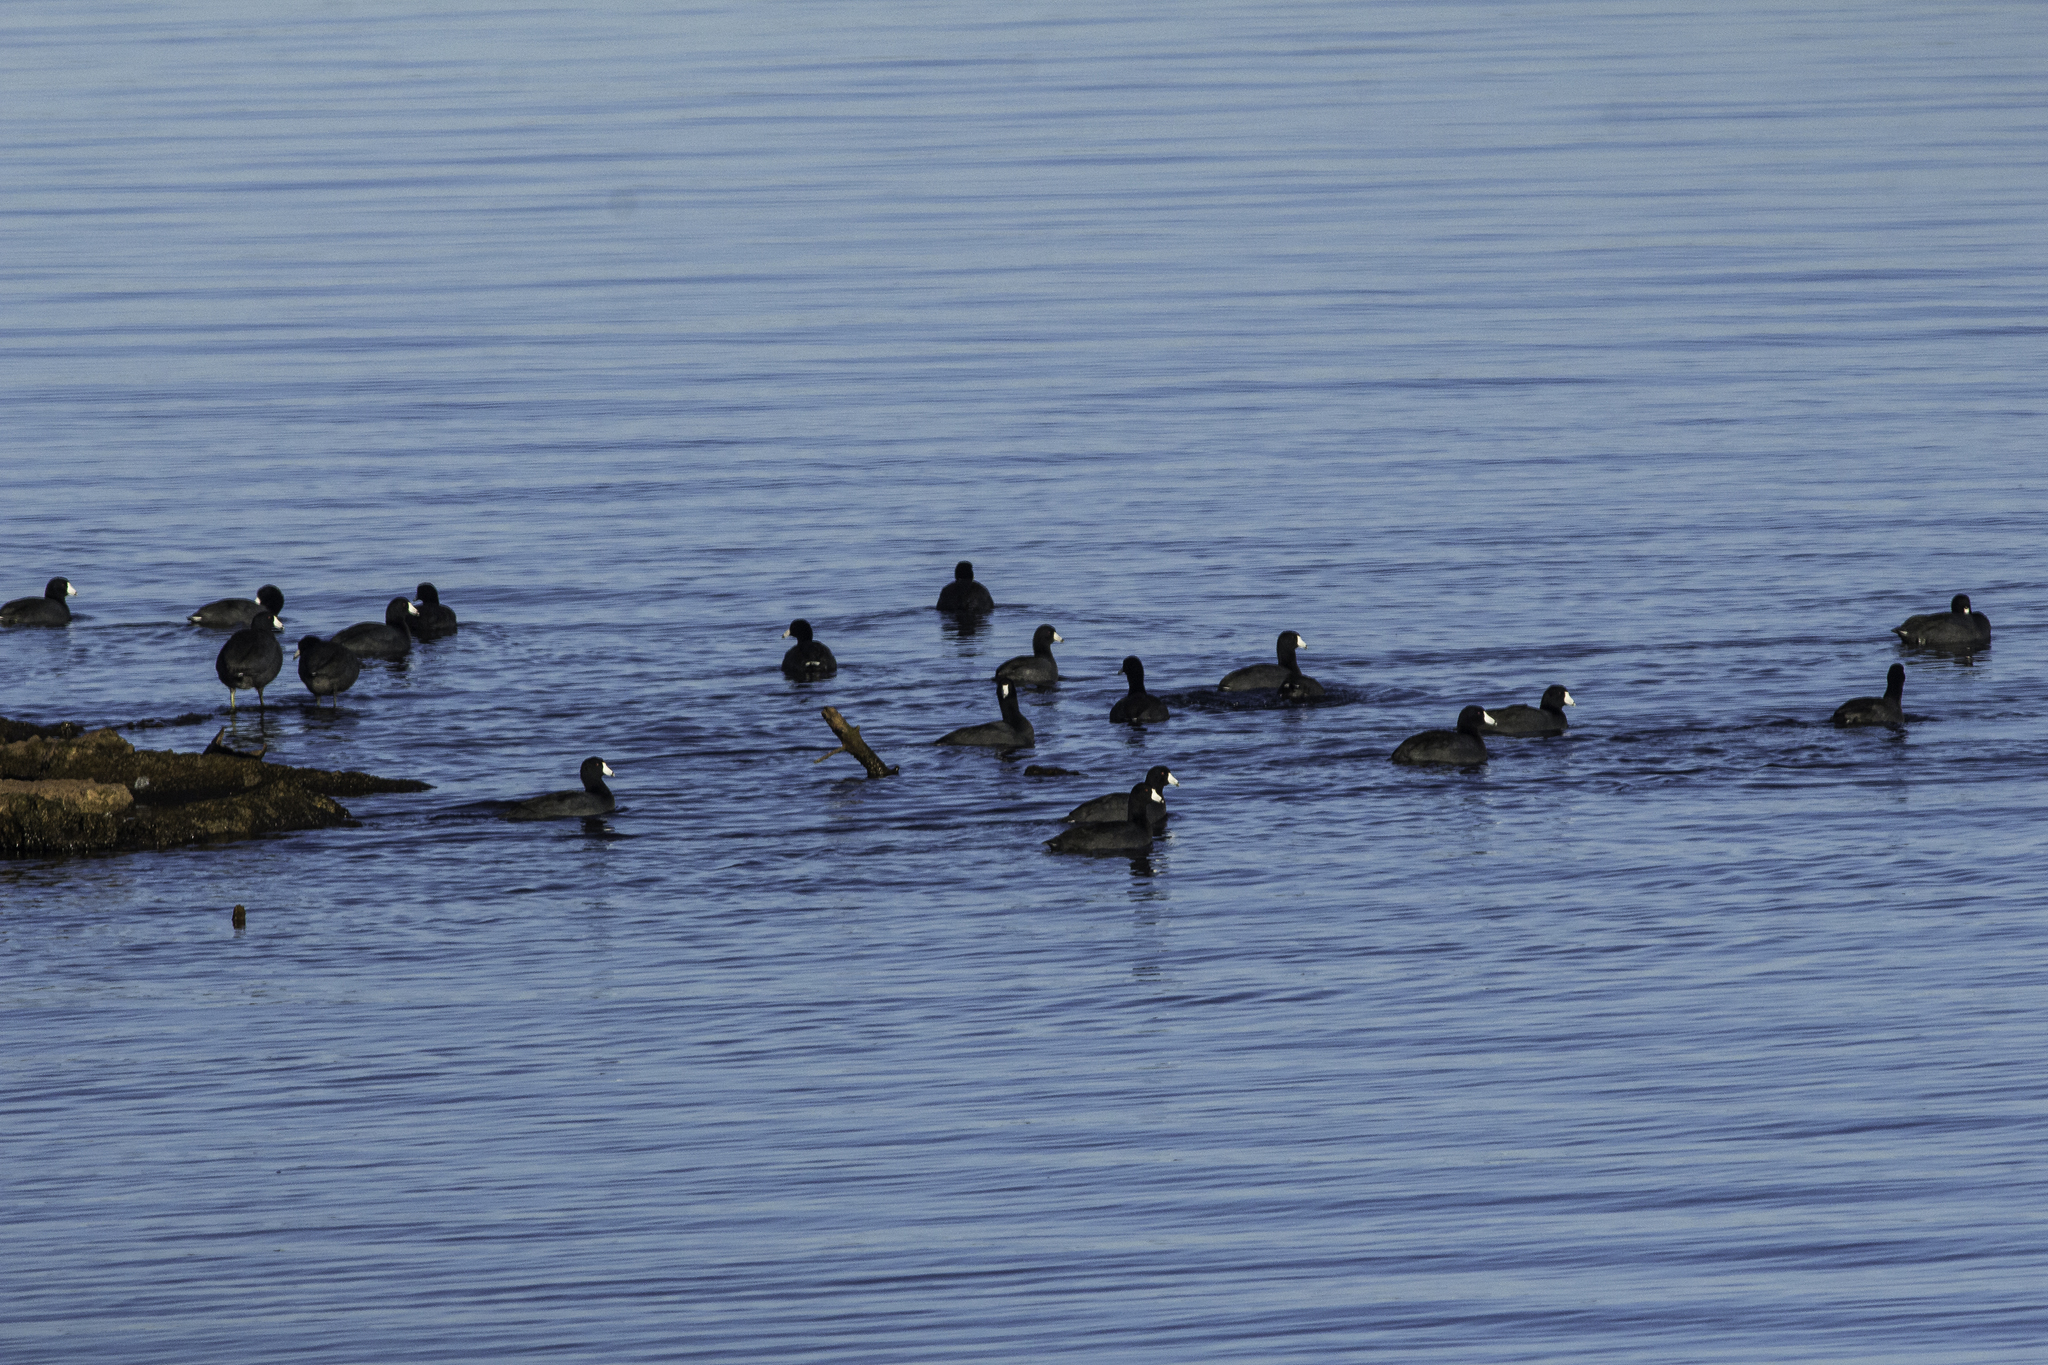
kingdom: Animalia
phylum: Chordata
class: Aves
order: Gruiformes
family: Rallidae
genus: Fulica
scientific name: Fulica americana
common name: American coot
